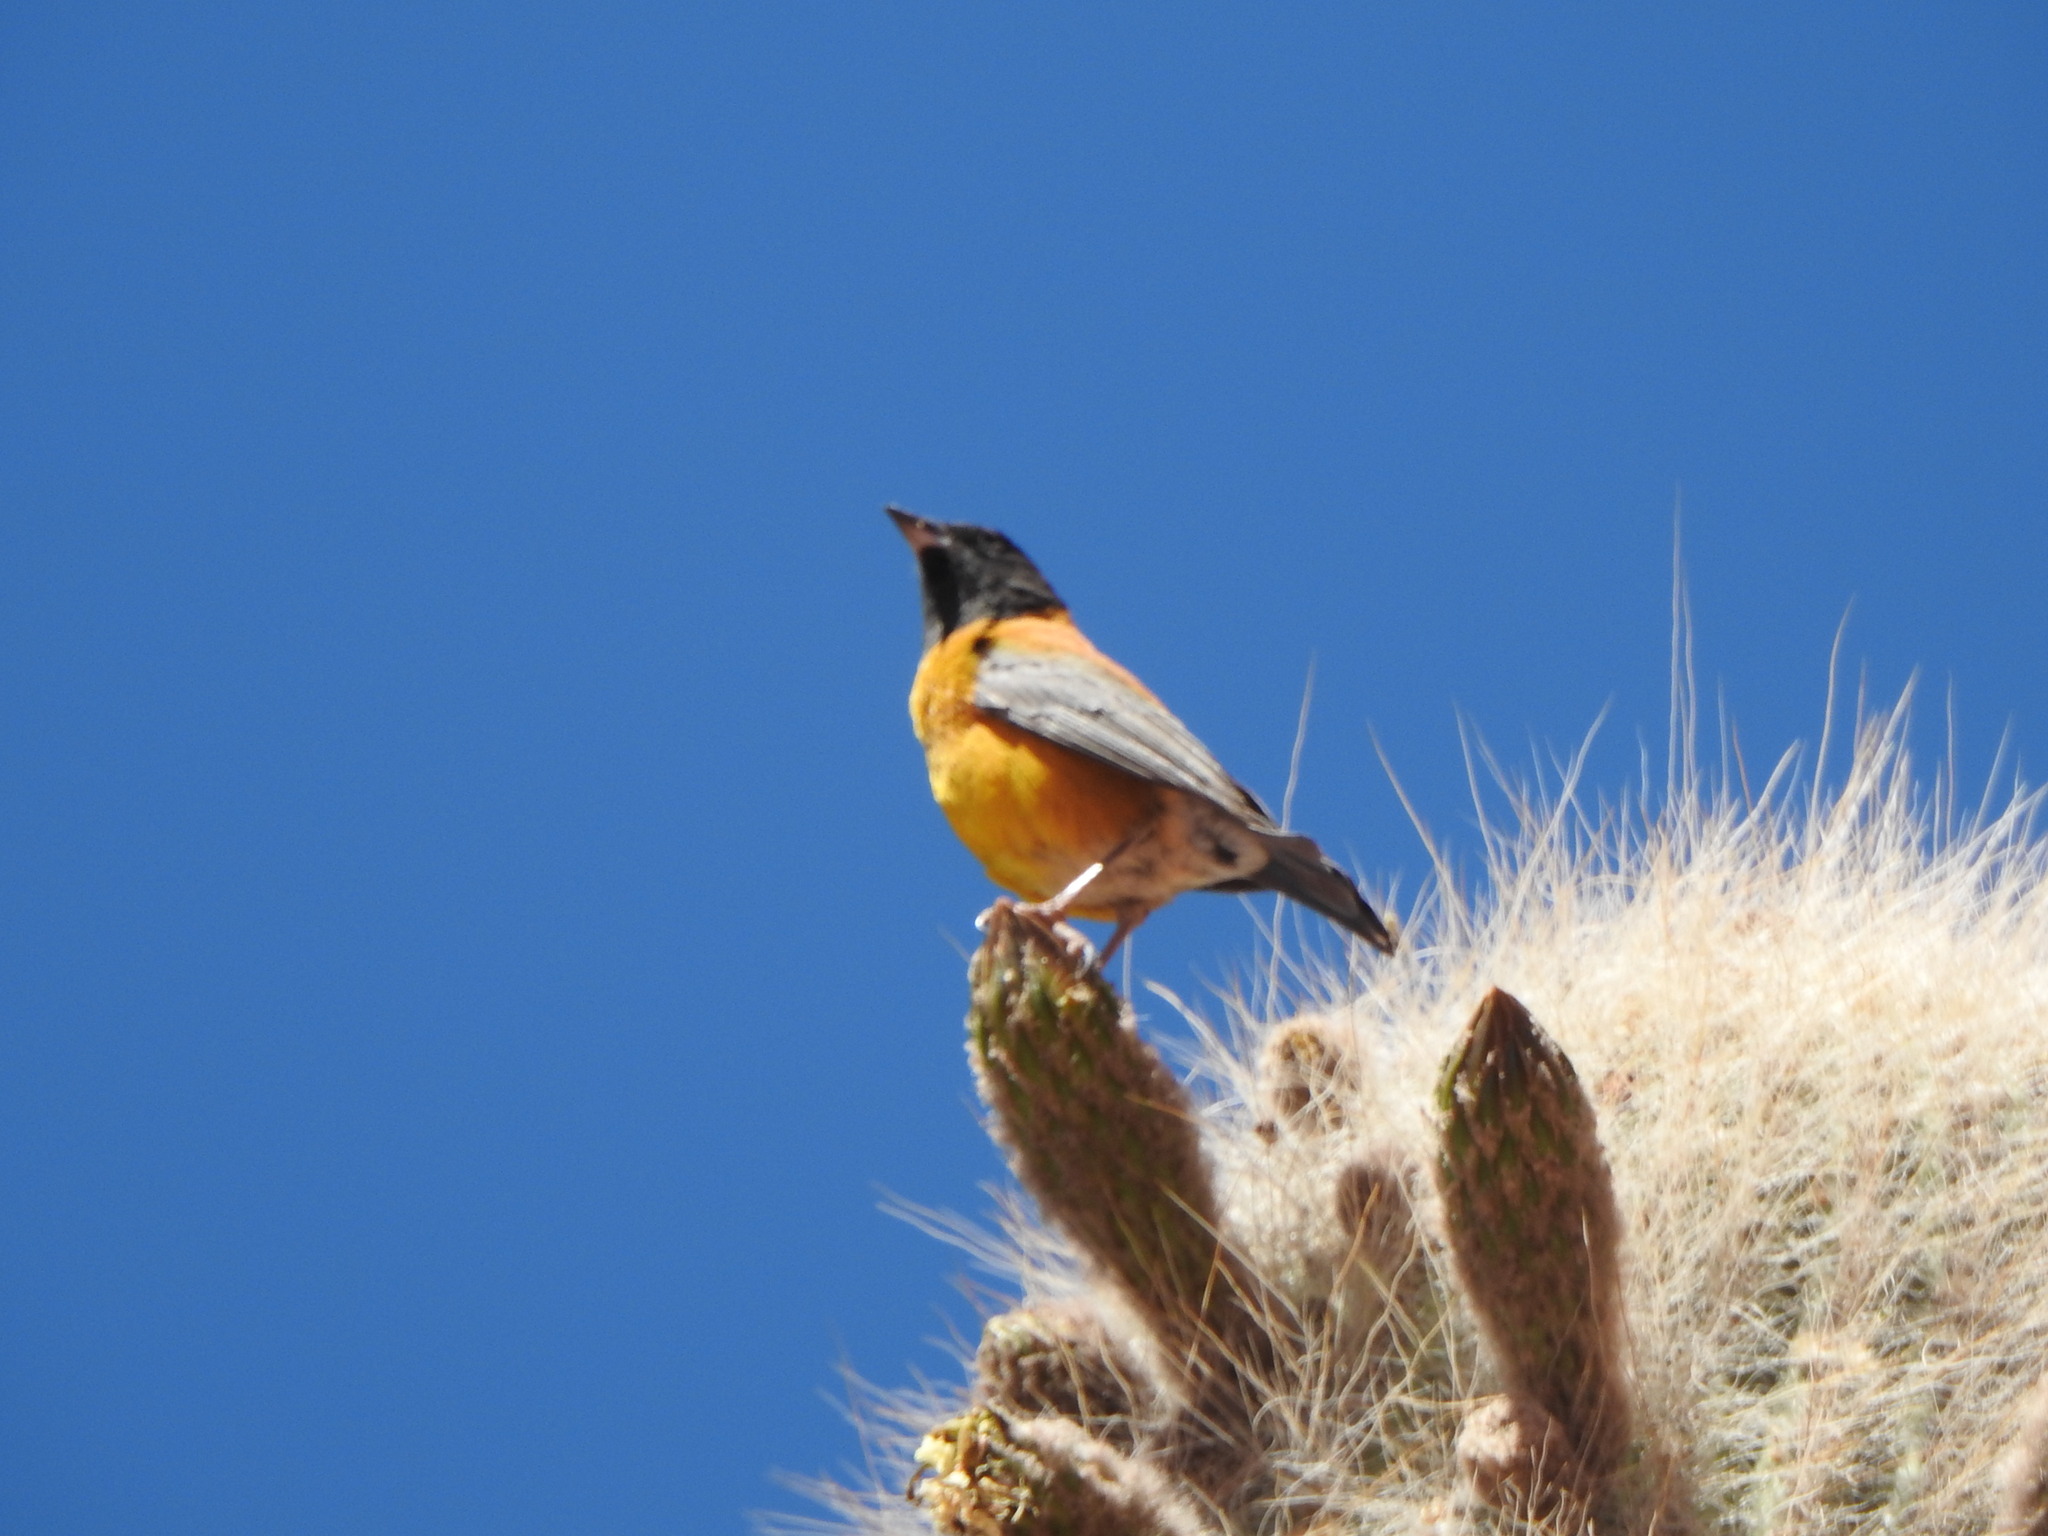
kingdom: Animalia
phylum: Chordata
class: Aves
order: Passeriformes
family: Thraupidae
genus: Phrygilus
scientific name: Phrygilus atriceps
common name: Black-hooded sierra finch
